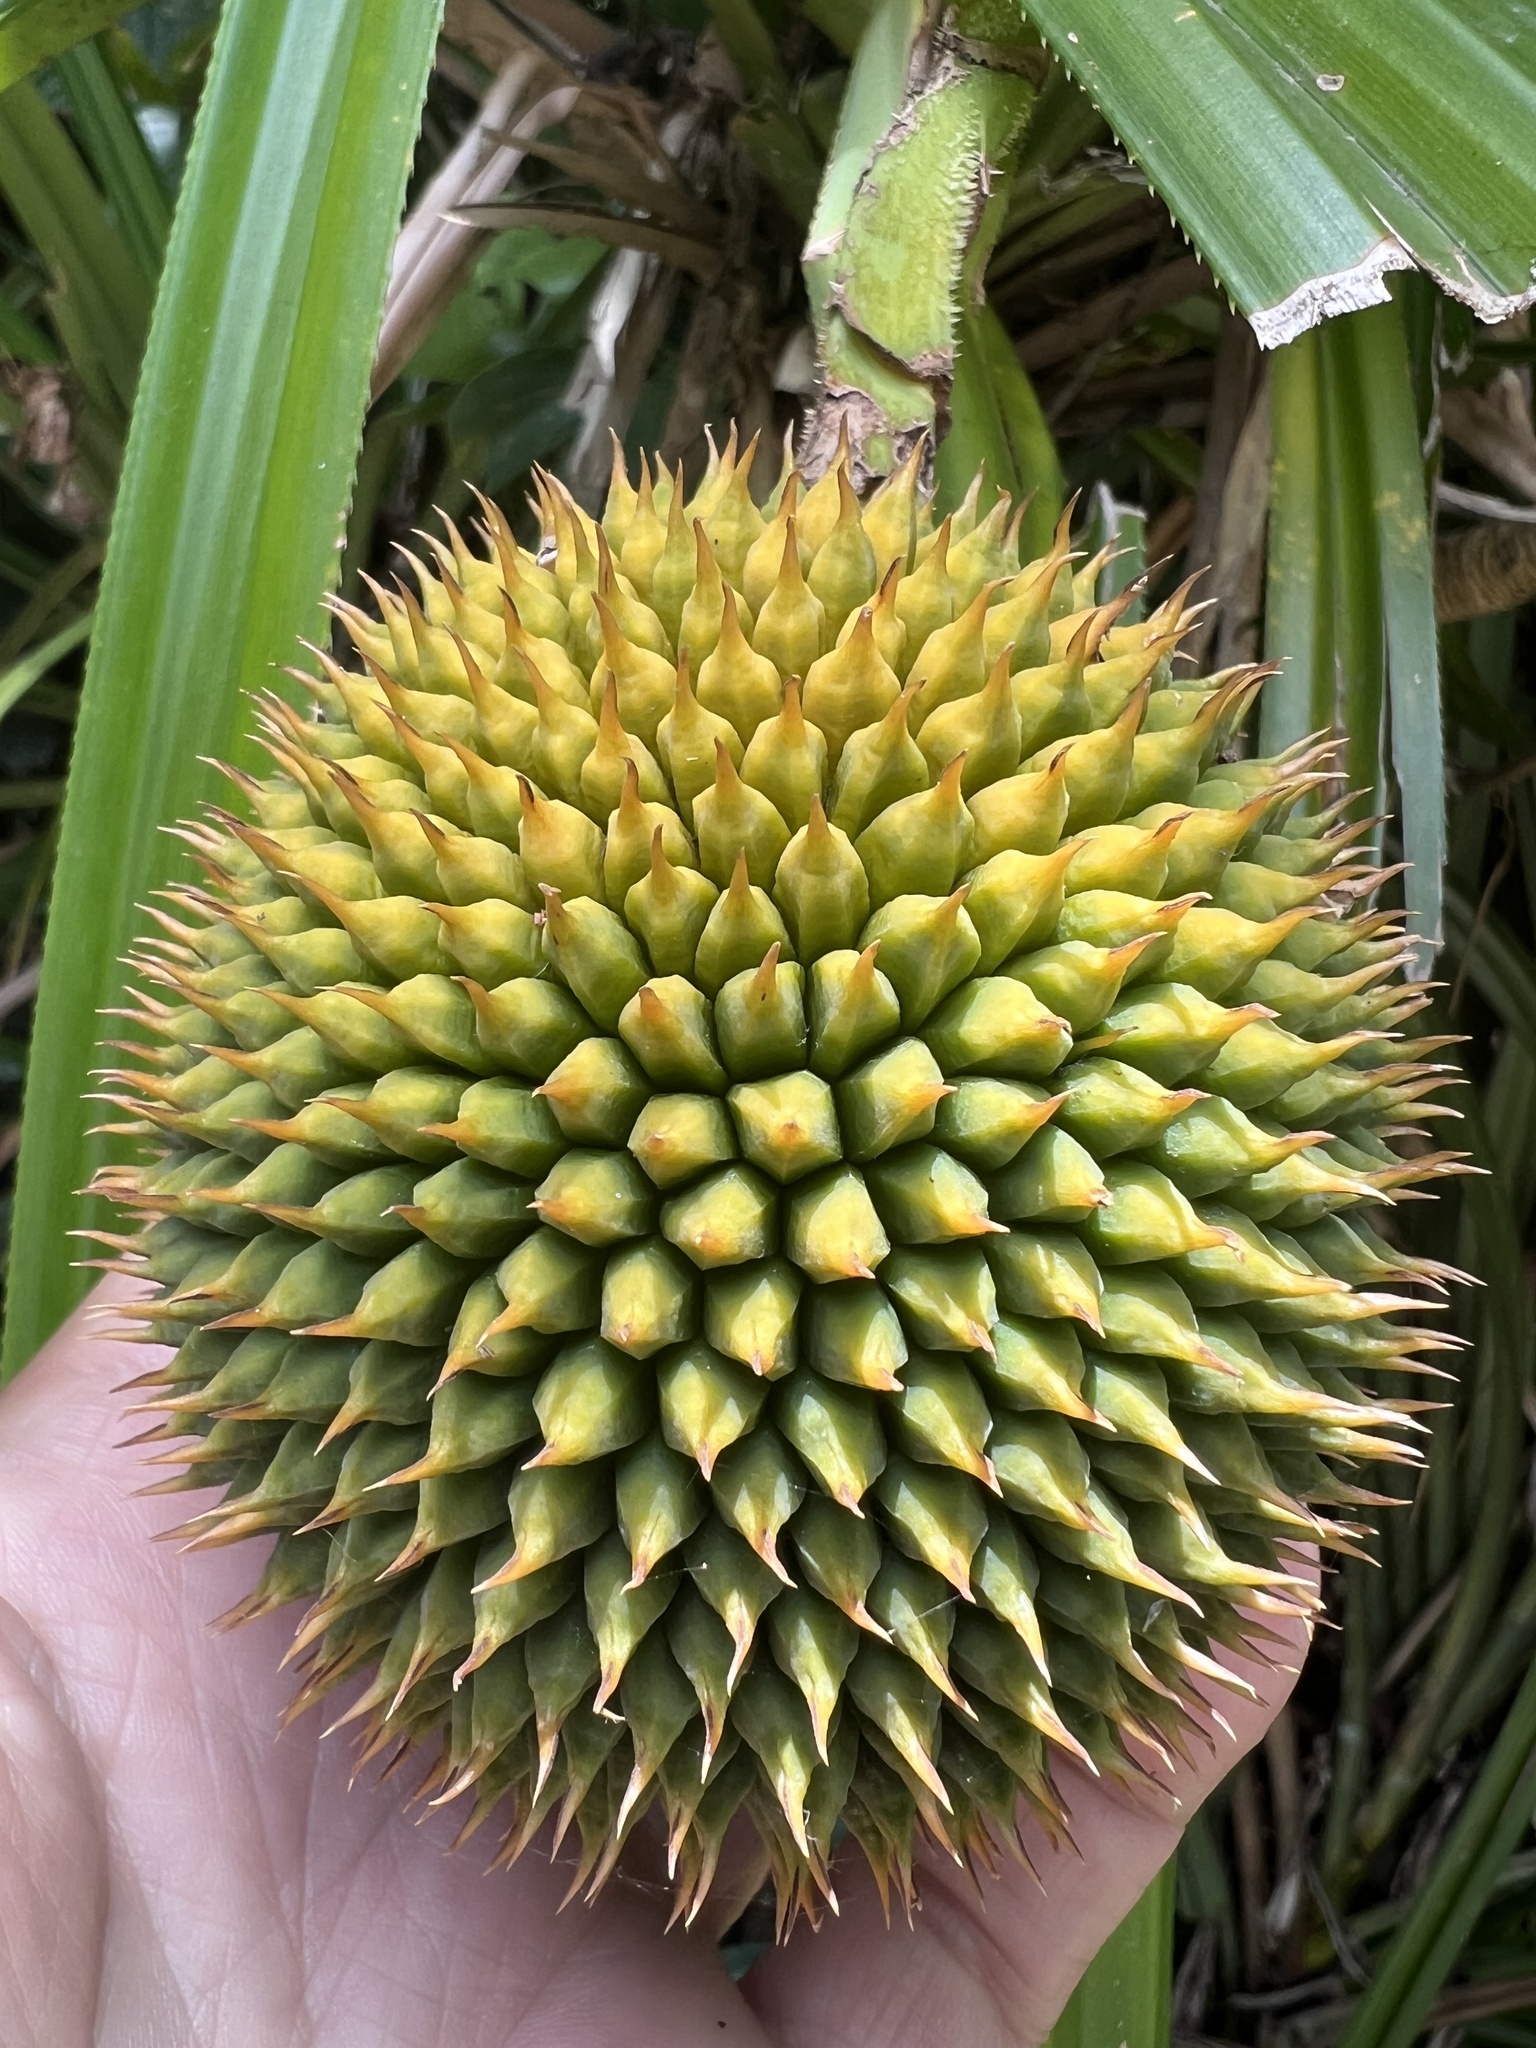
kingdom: Plantae
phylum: Tracheophyta
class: Liliopsida
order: Pandanales
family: Pandanaceae
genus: Benstonea
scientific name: Benstonea monticola
